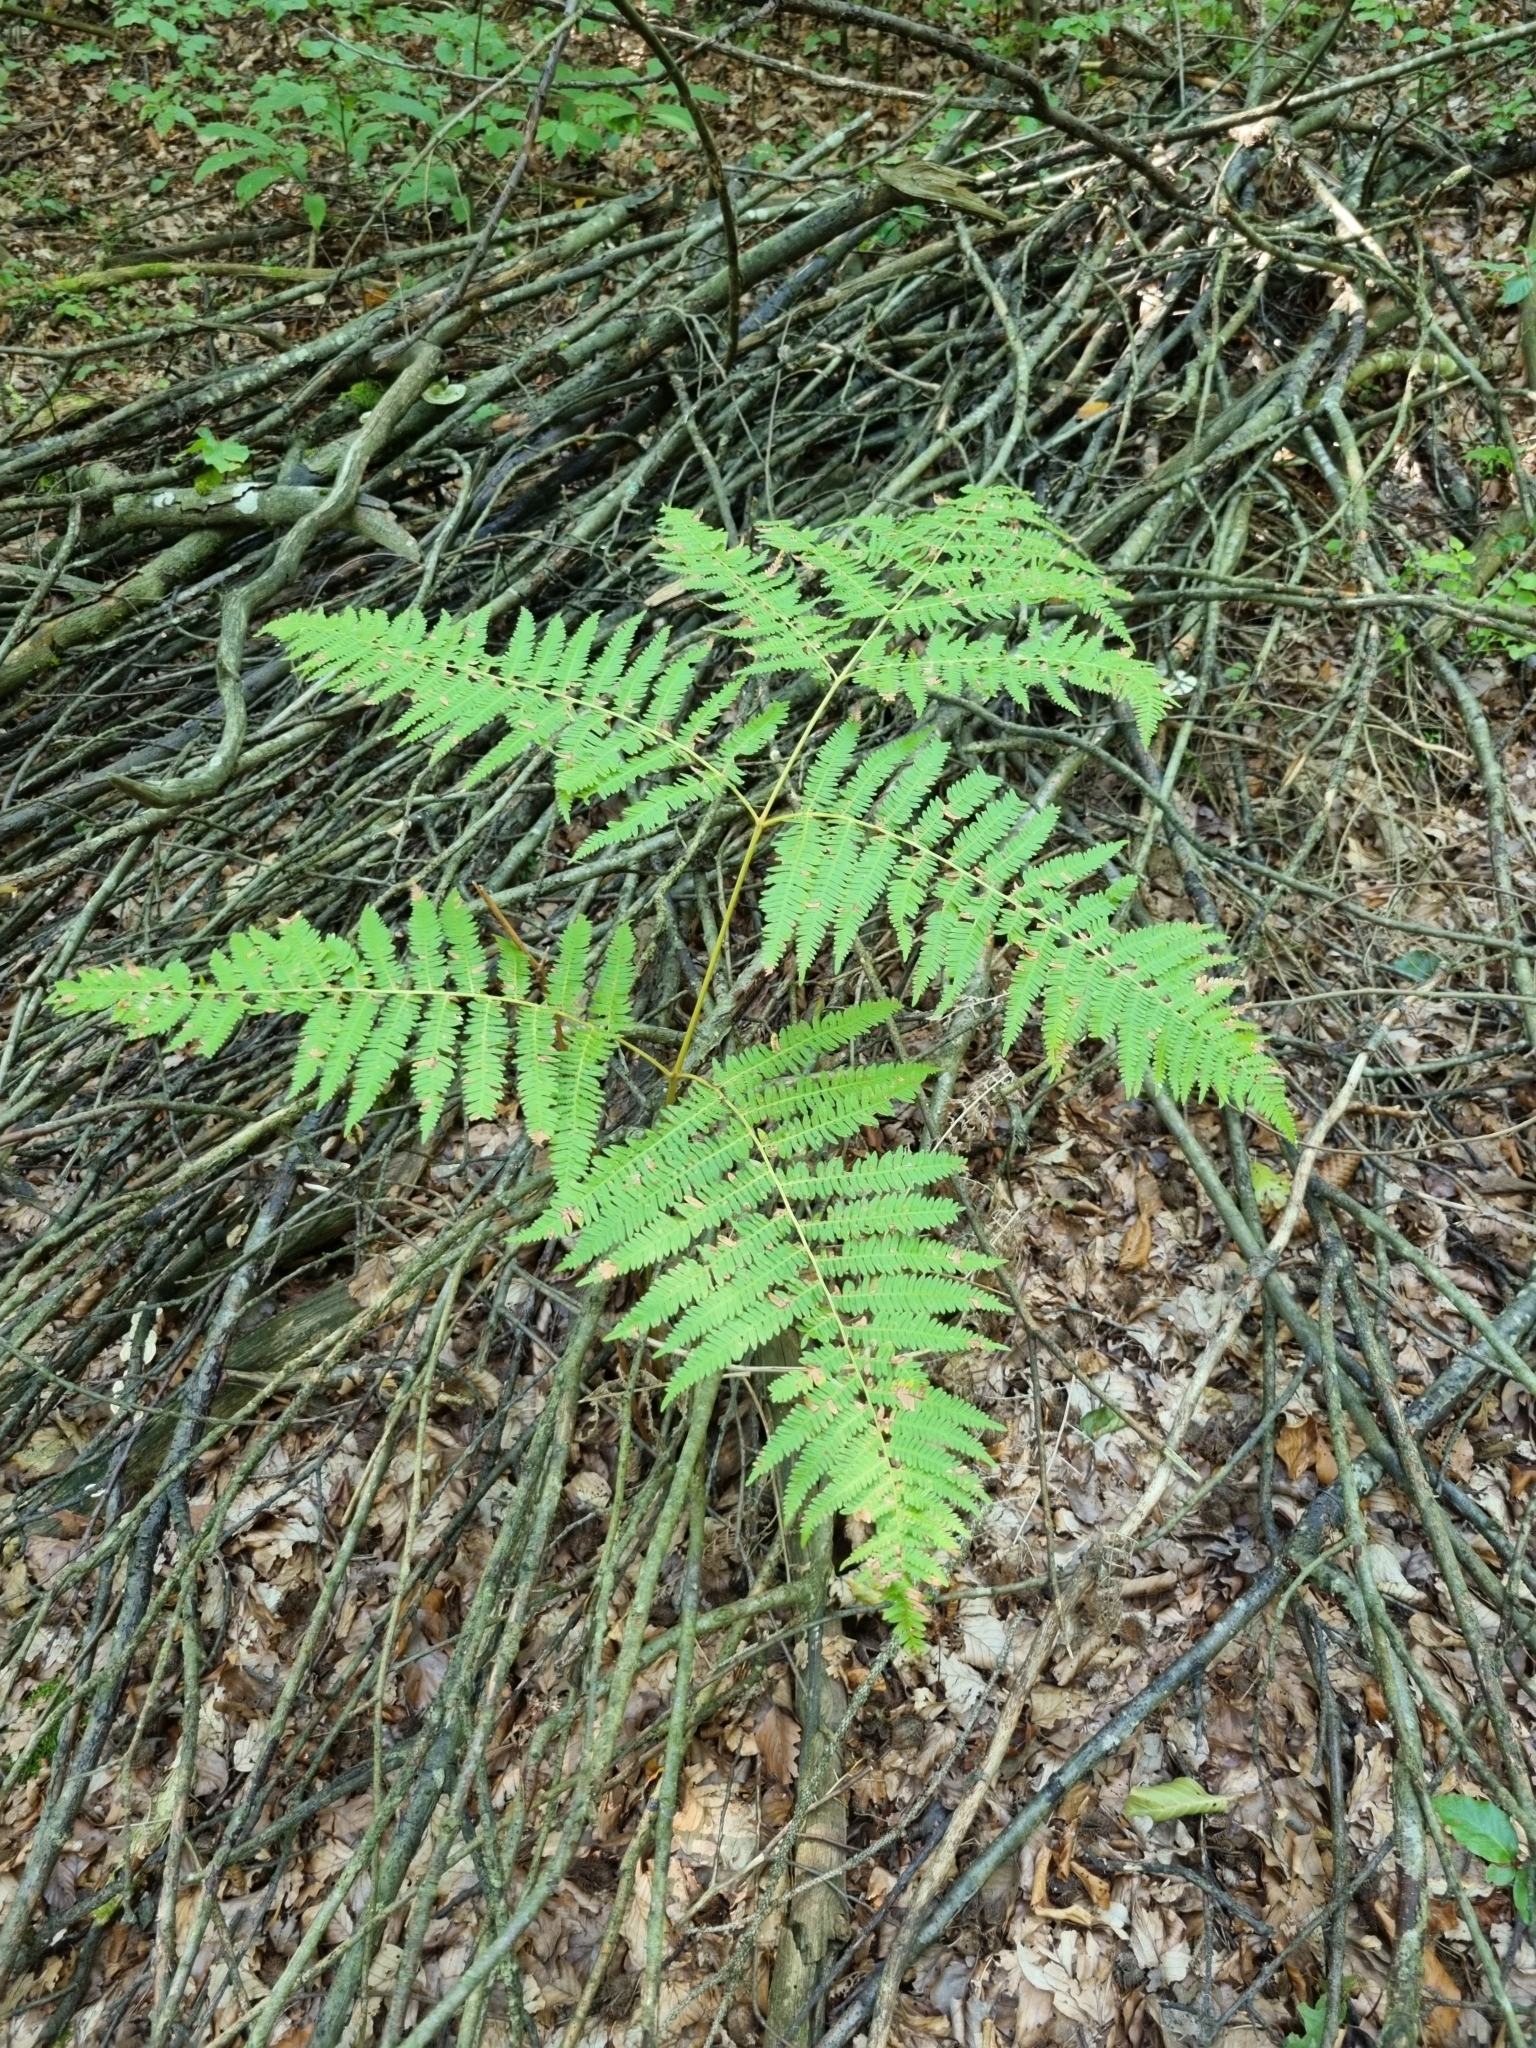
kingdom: Plantae
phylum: Tracheophyta
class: Polypodiopsida
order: Polypodiales
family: Dennstaedtiaceae
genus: Pteridium
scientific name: Pteridium aquilinum
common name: Bracken
